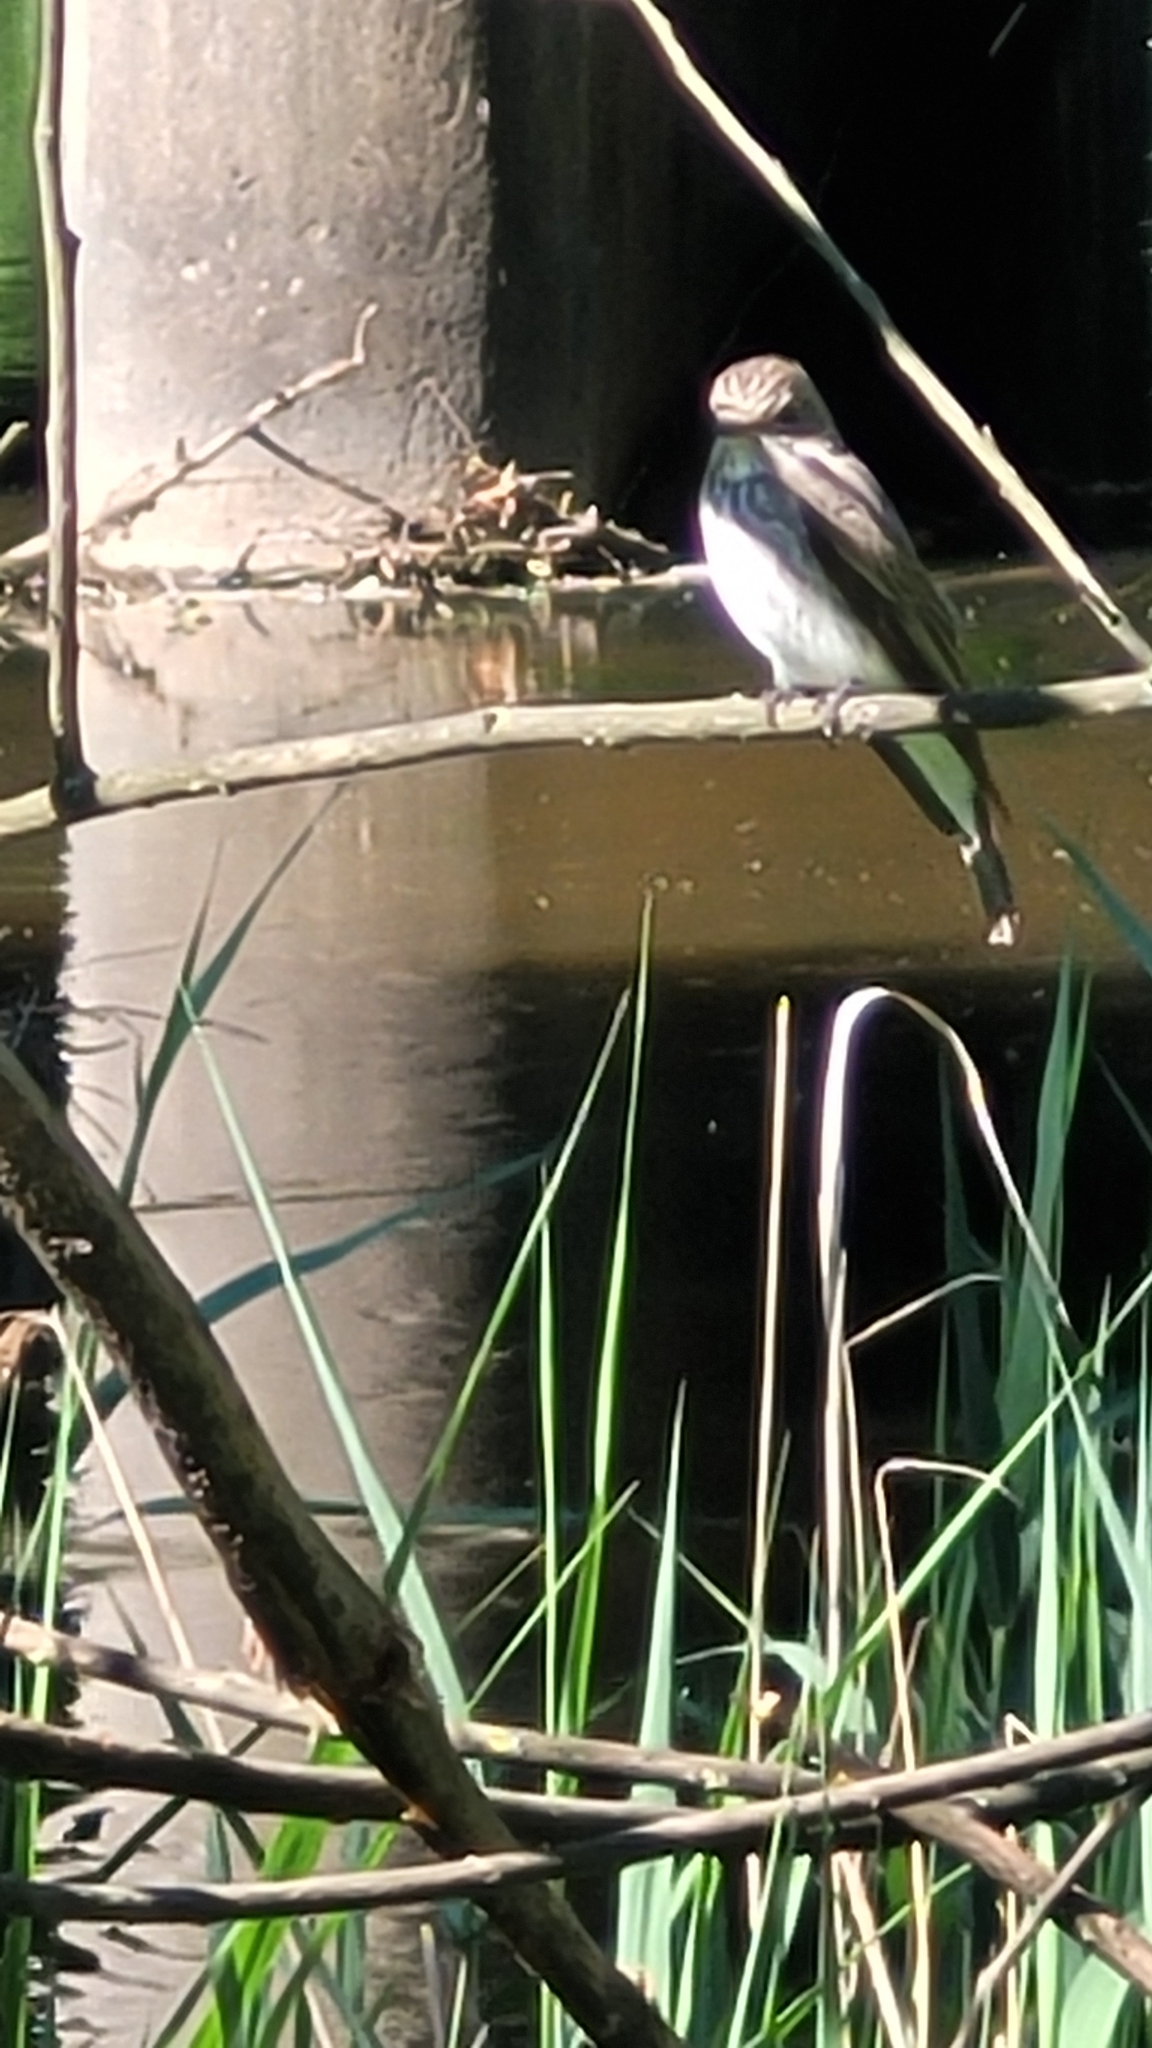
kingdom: Animalia
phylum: Chordata
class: Aves
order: Passeriformes
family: Muscicapidae
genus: Muscicapa
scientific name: Muscicapa striata
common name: Spotted flycatcher
